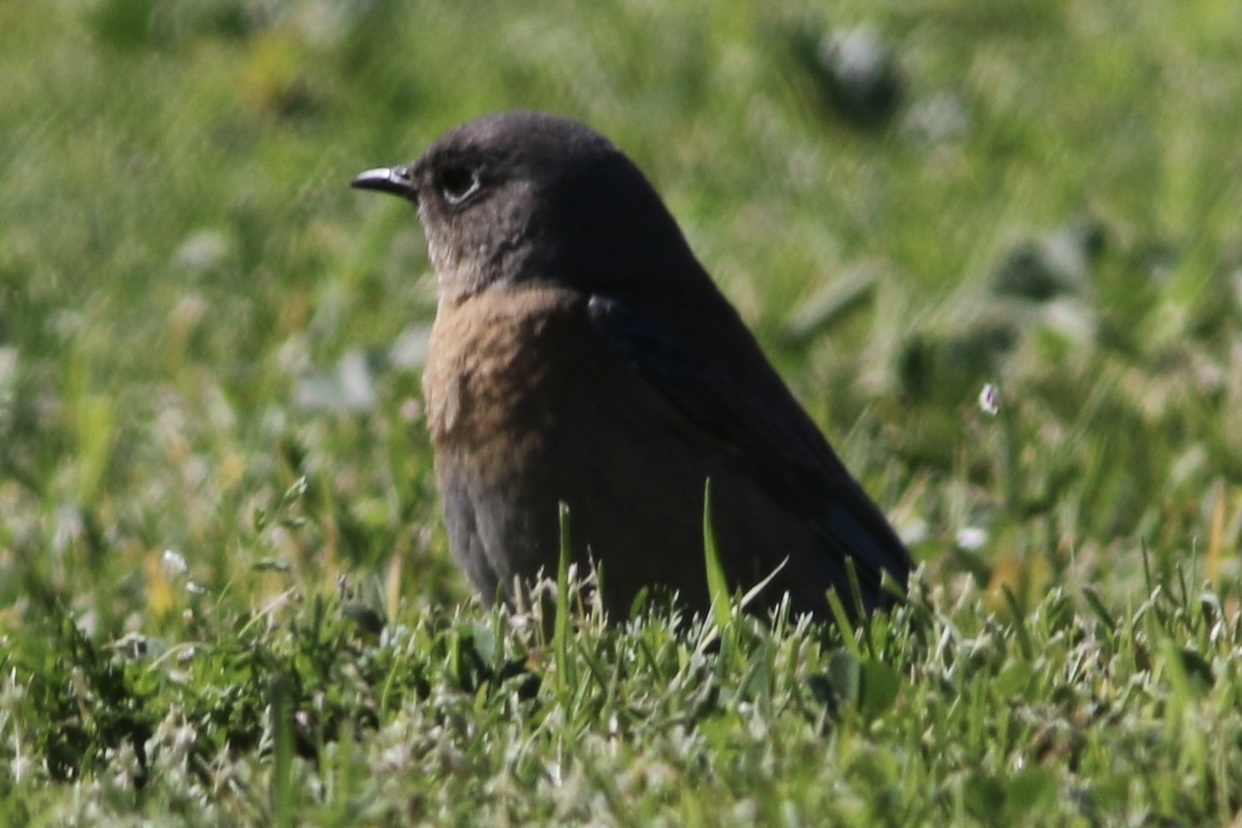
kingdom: Animalia
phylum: Chordata
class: Aves
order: Passeriformes
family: Turdidae
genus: Sialia
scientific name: Sialia mexicana
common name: Western bluebird
